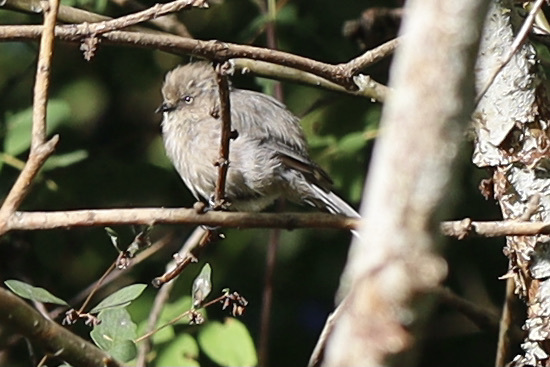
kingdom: Animalia
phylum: Chordata
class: Aves
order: Passeriformes
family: Aegithalidae
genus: Psaltriparus
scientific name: Psaltriparus minimus
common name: American bushtit
